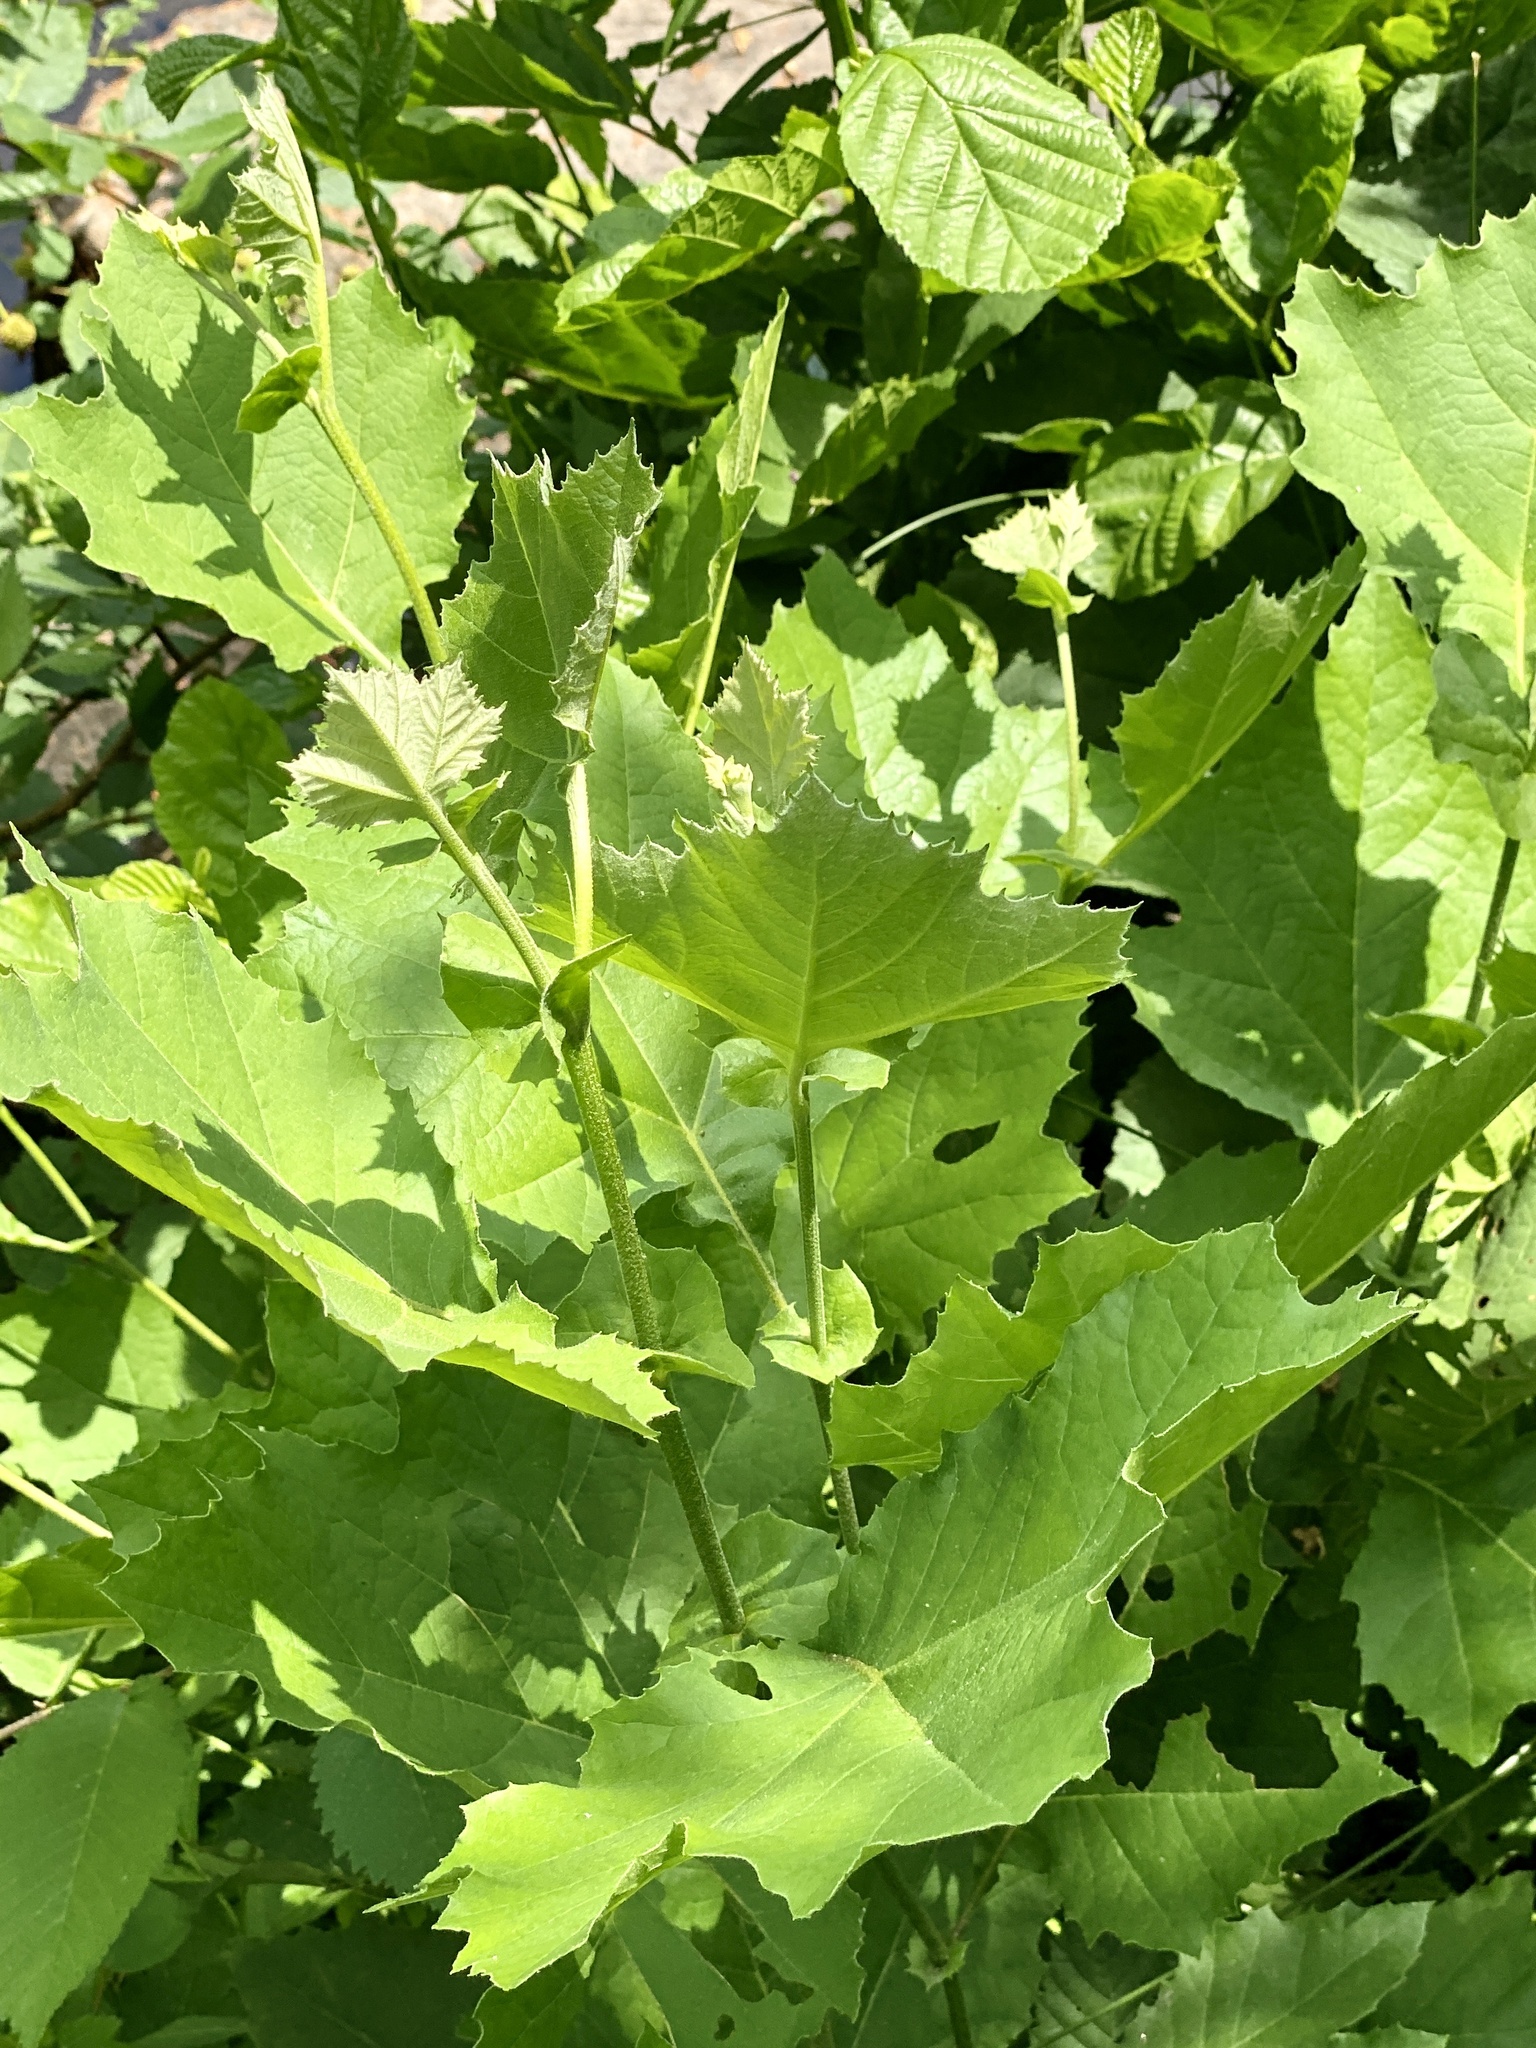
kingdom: Plantae
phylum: Tracheophyta
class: Magnoliopsida
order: Proteales
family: Platanaceae
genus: Platanus
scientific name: Platanus occidentalis
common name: American sycamore
